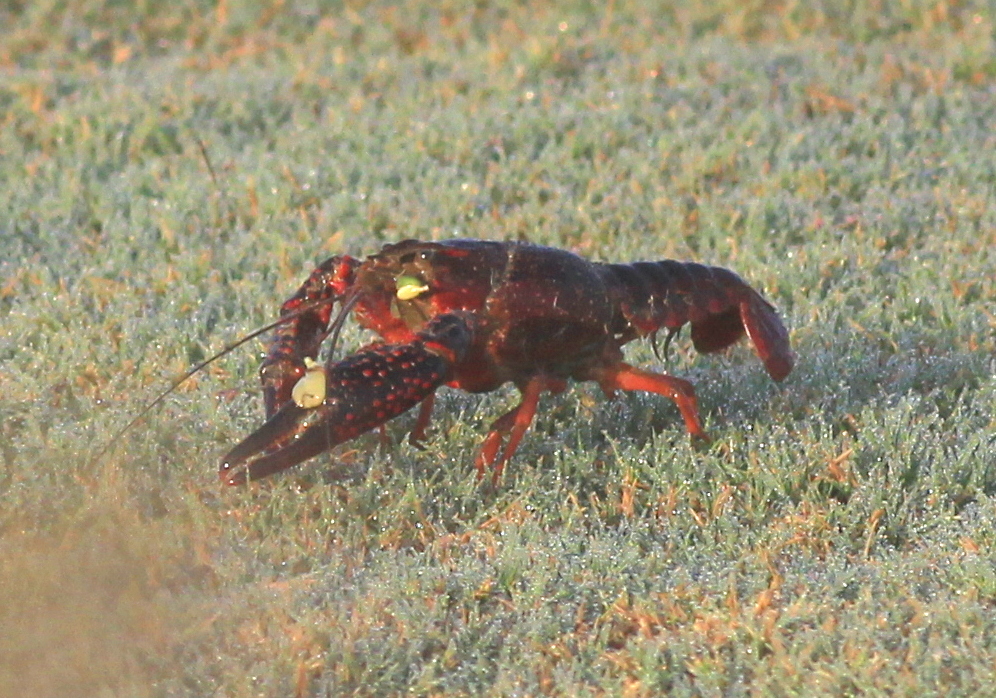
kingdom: Animalia
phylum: Arthropoda
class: Malacostraca
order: Decapoda
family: Cambaridae
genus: Procambarus
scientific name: Procambarus clarkii
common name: Red swamp crayfish
